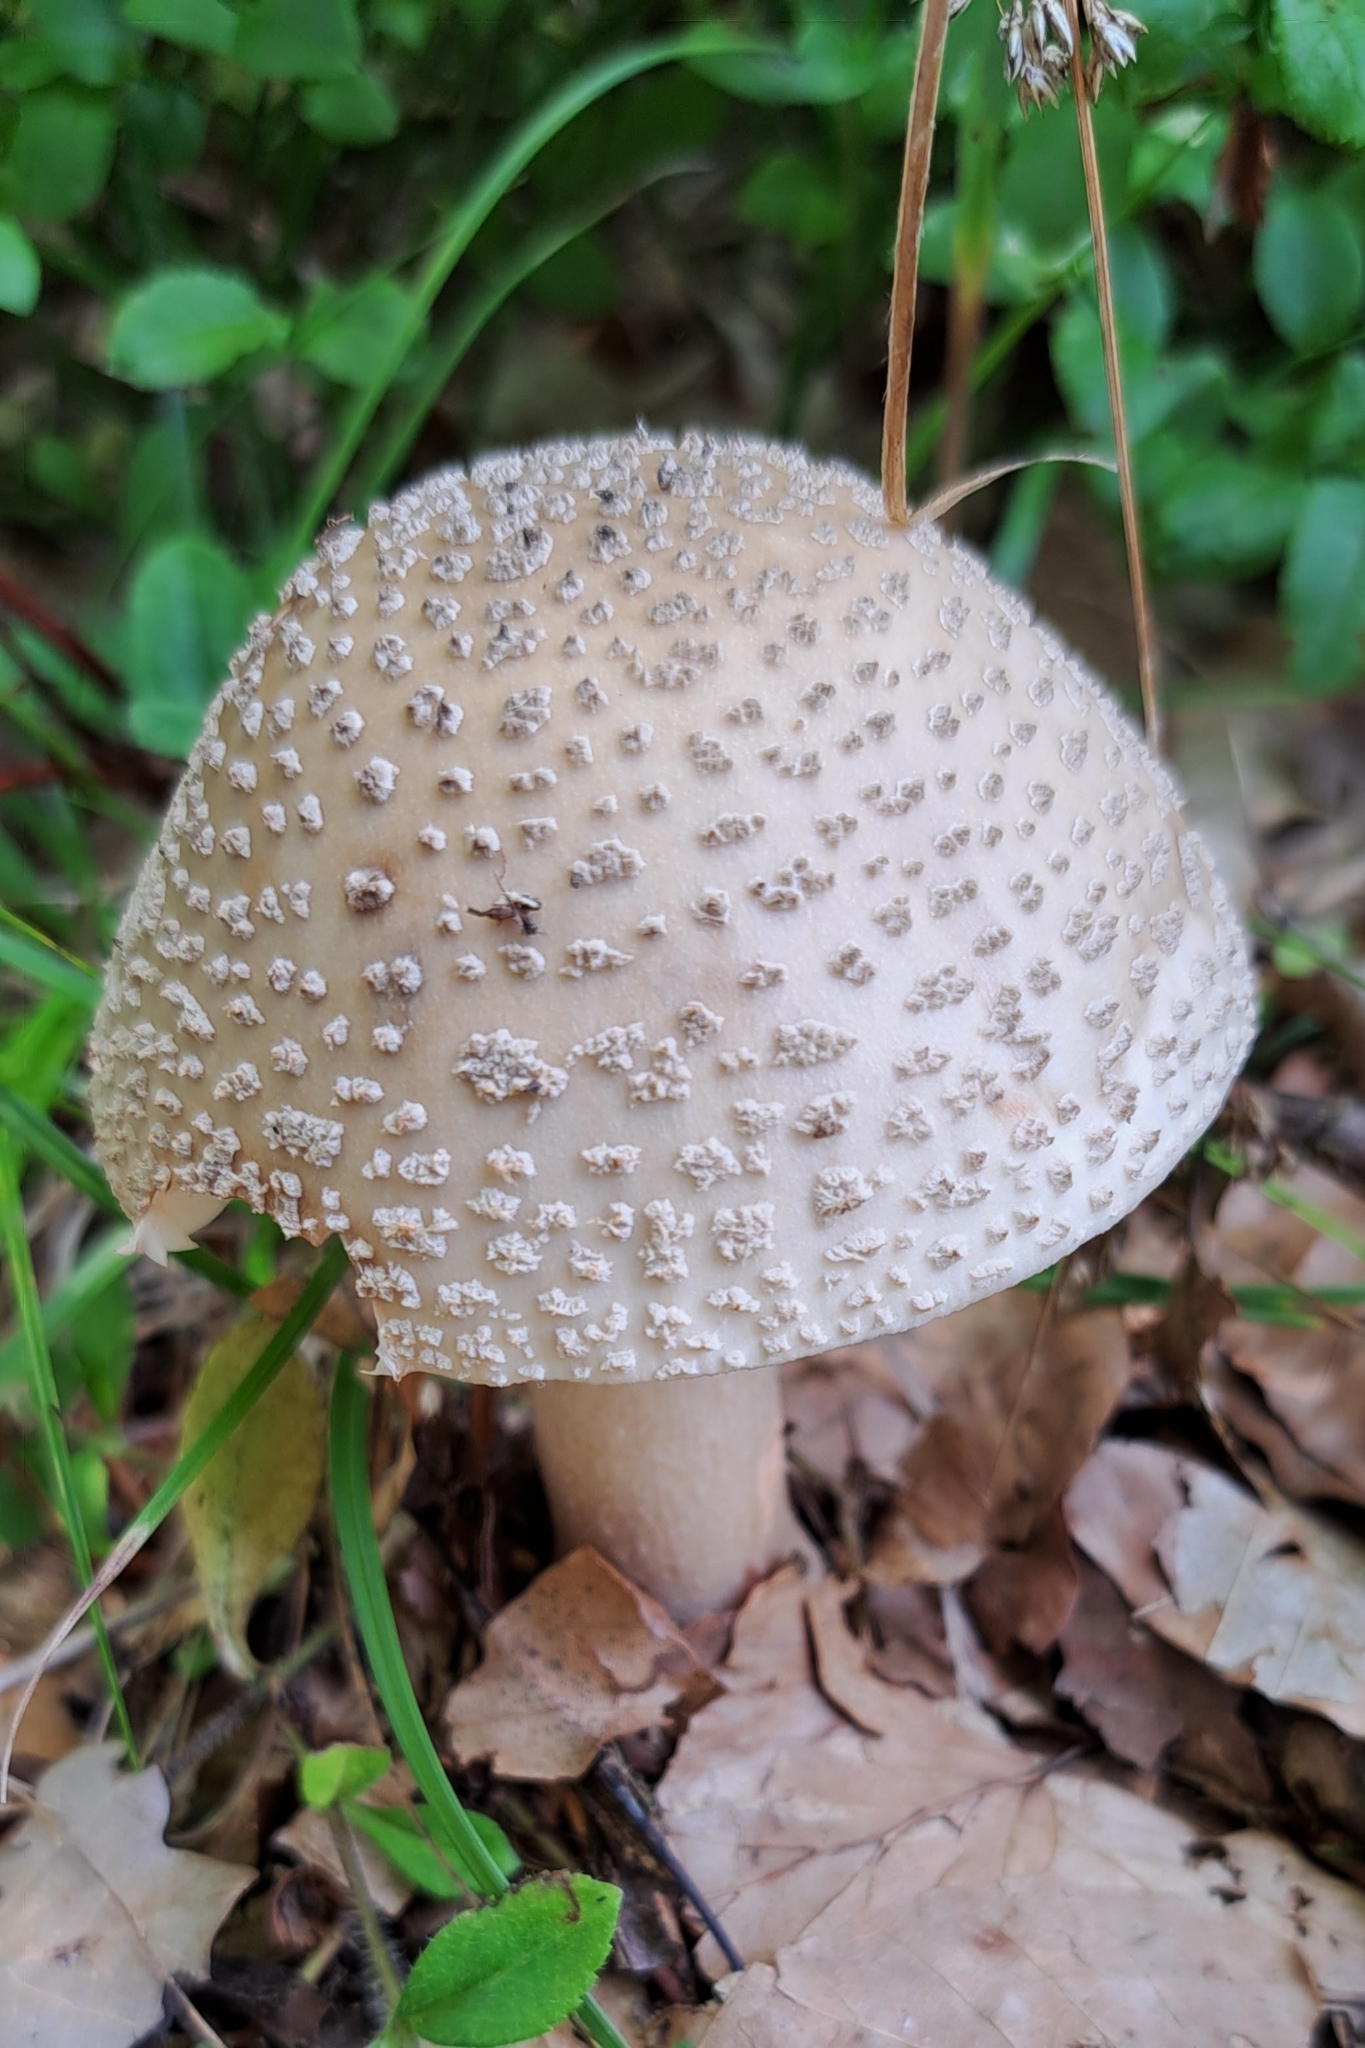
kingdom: Fungi
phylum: Basidiomycota
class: Agaricomycetes
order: Agaricales
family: Amanitaceae
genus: Amanita
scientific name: Amanita rubescens
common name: Blusher
